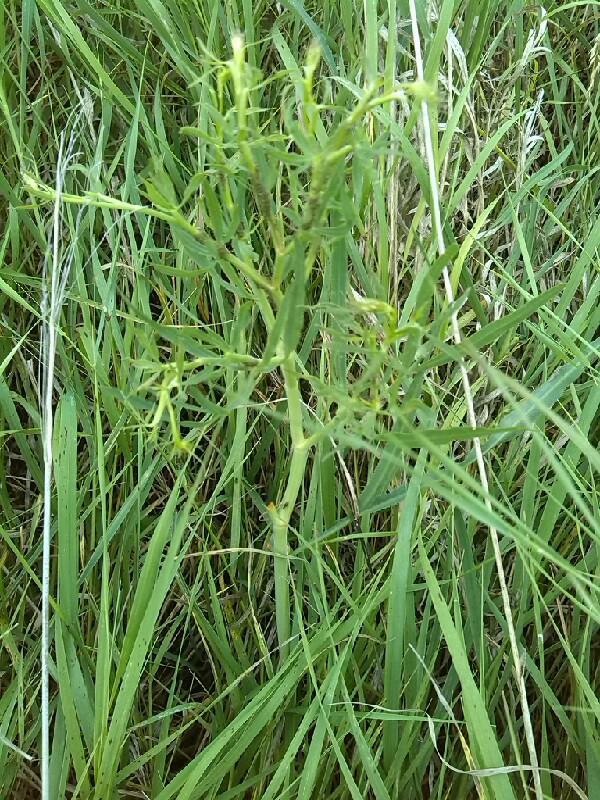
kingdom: Plantae
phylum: Tracheophyta
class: Magnoliopsida
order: Apiales
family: Apiaceae
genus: Falcaria
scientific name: Falcaria vulgaris
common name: Longleaf
